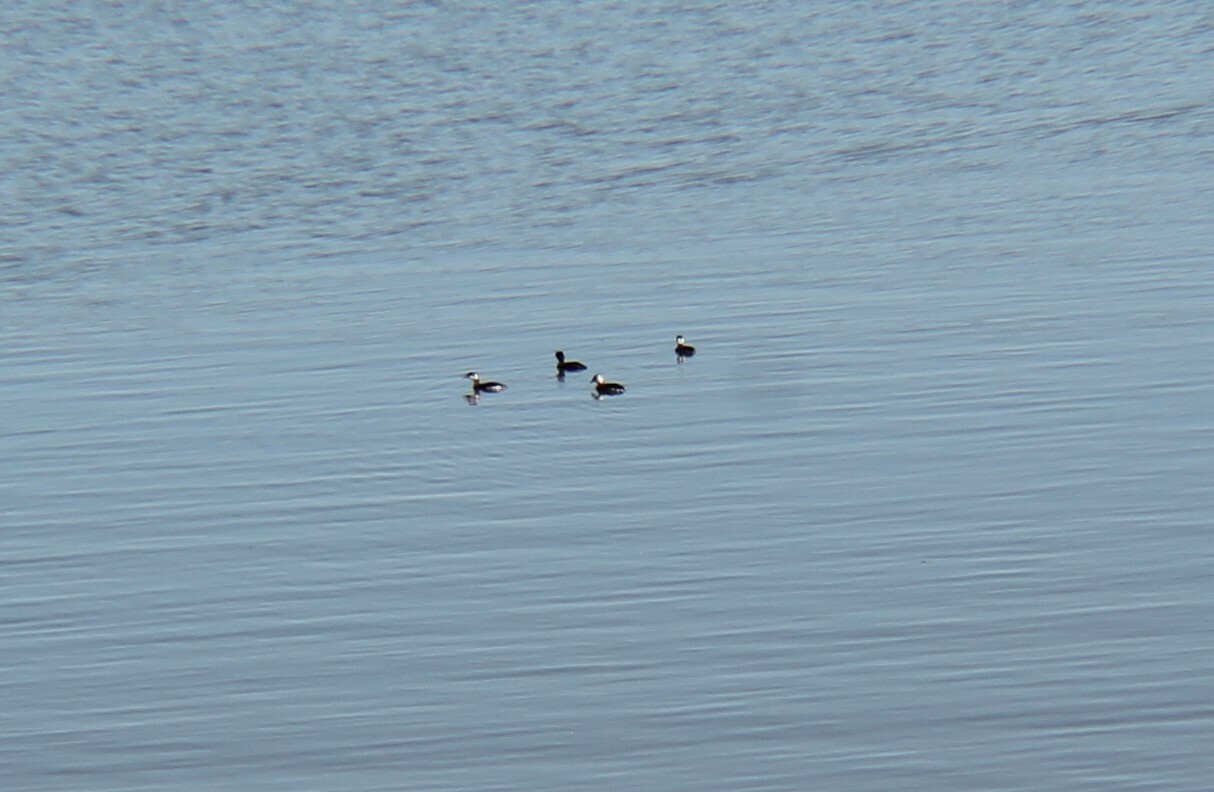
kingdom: Animalia
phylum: Chordata
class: Aves
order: Podicipediformes
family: Podicipedidae
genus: Podiceps
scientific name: Podiceps auritus
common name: Horned grebe
